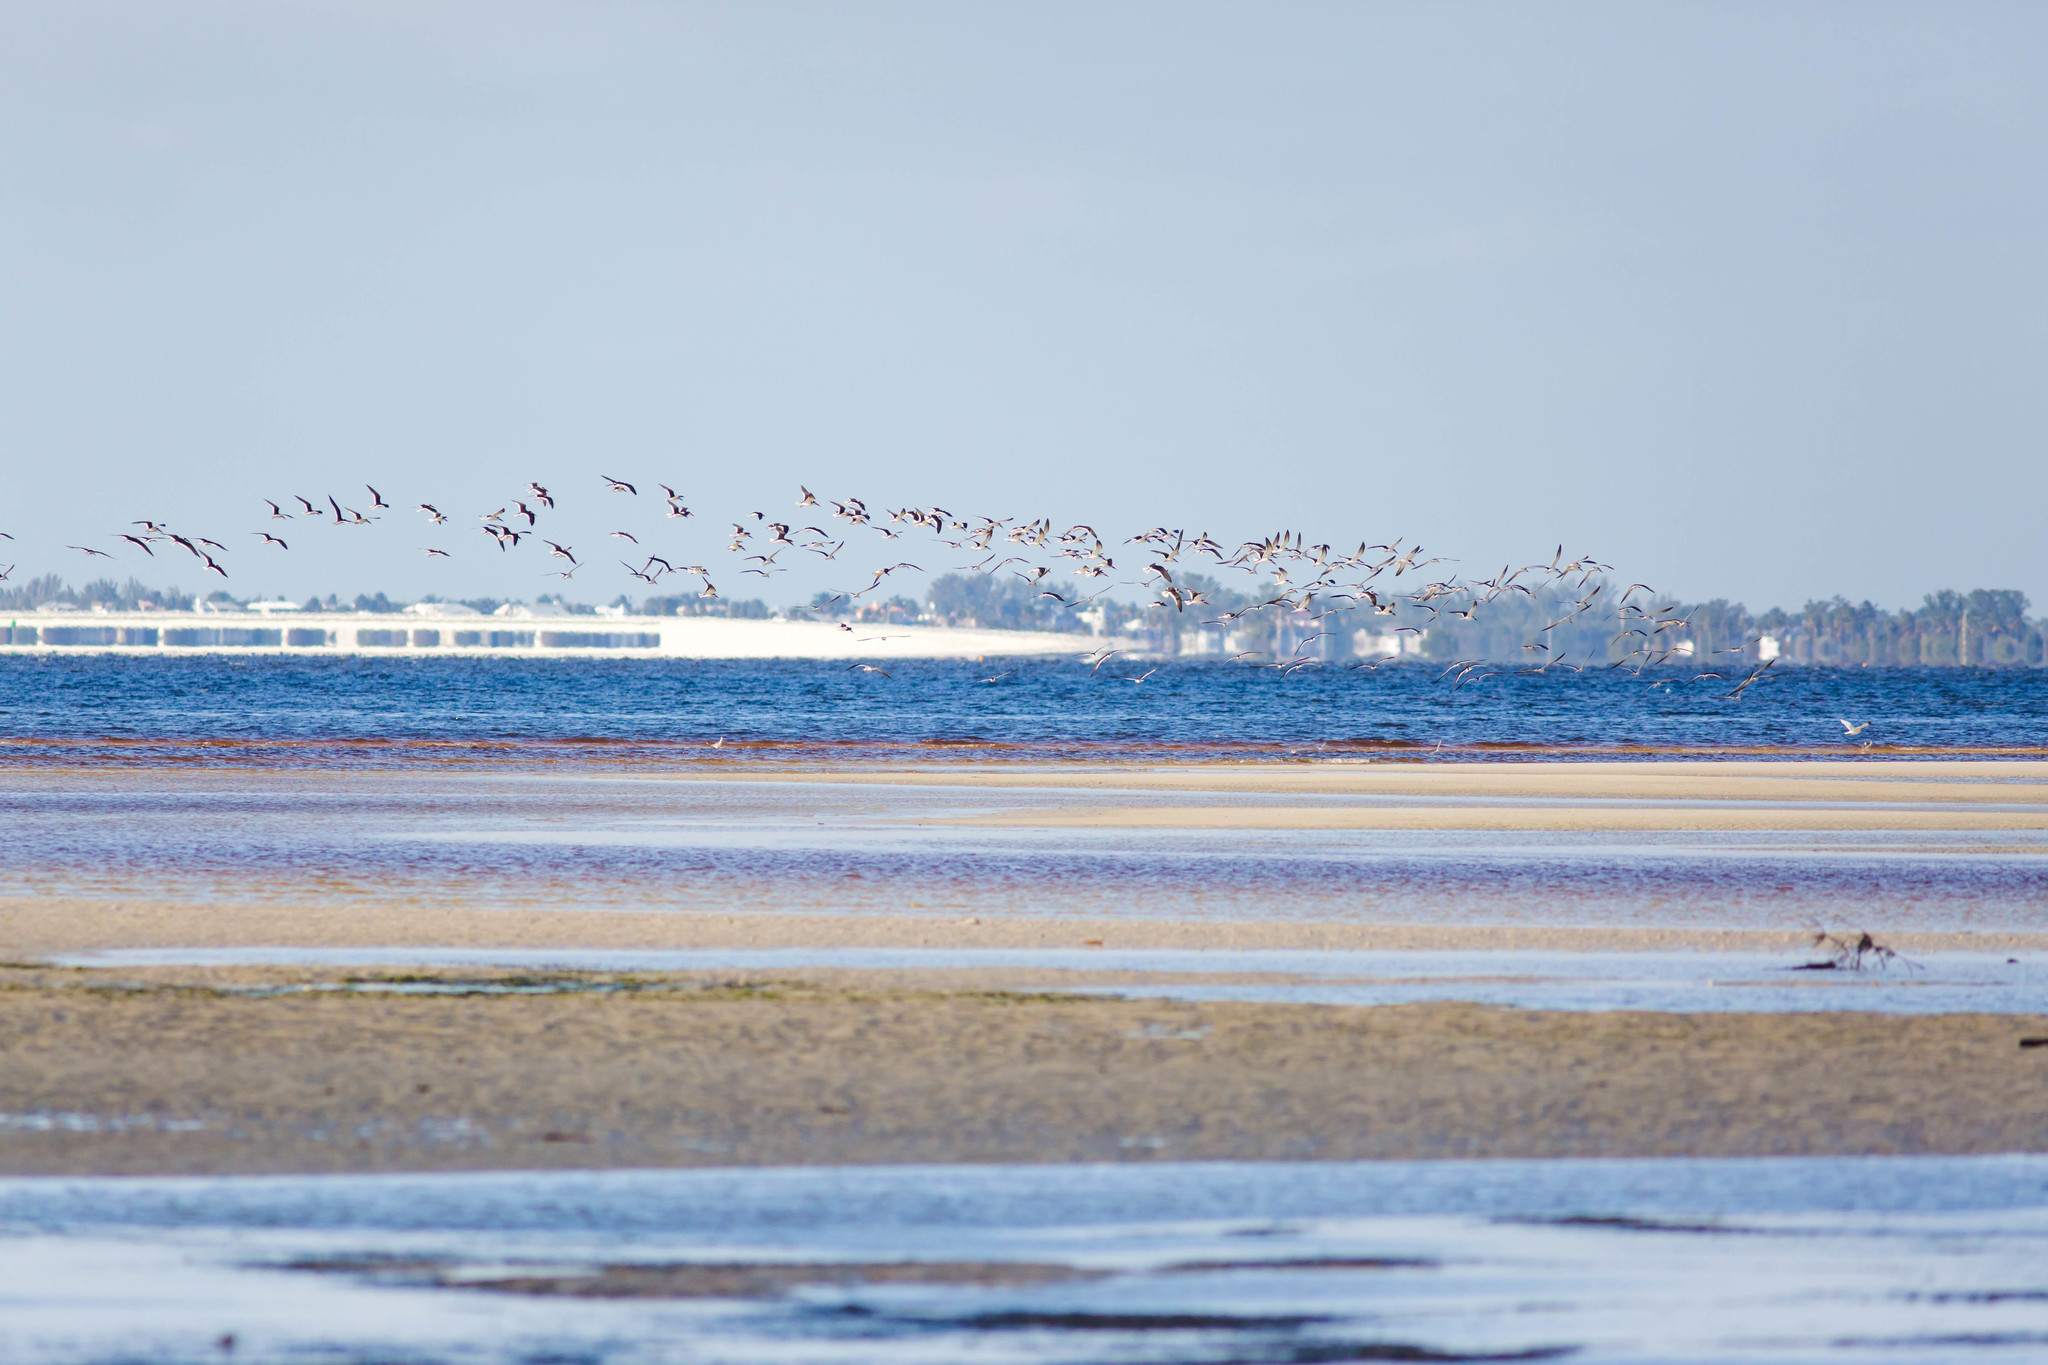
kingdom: Animalia
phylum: Chordata
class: Aves
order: Charadriiformes
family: Laridae
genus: Rynchops
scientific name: Rynchops niger
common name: Black skimmer
